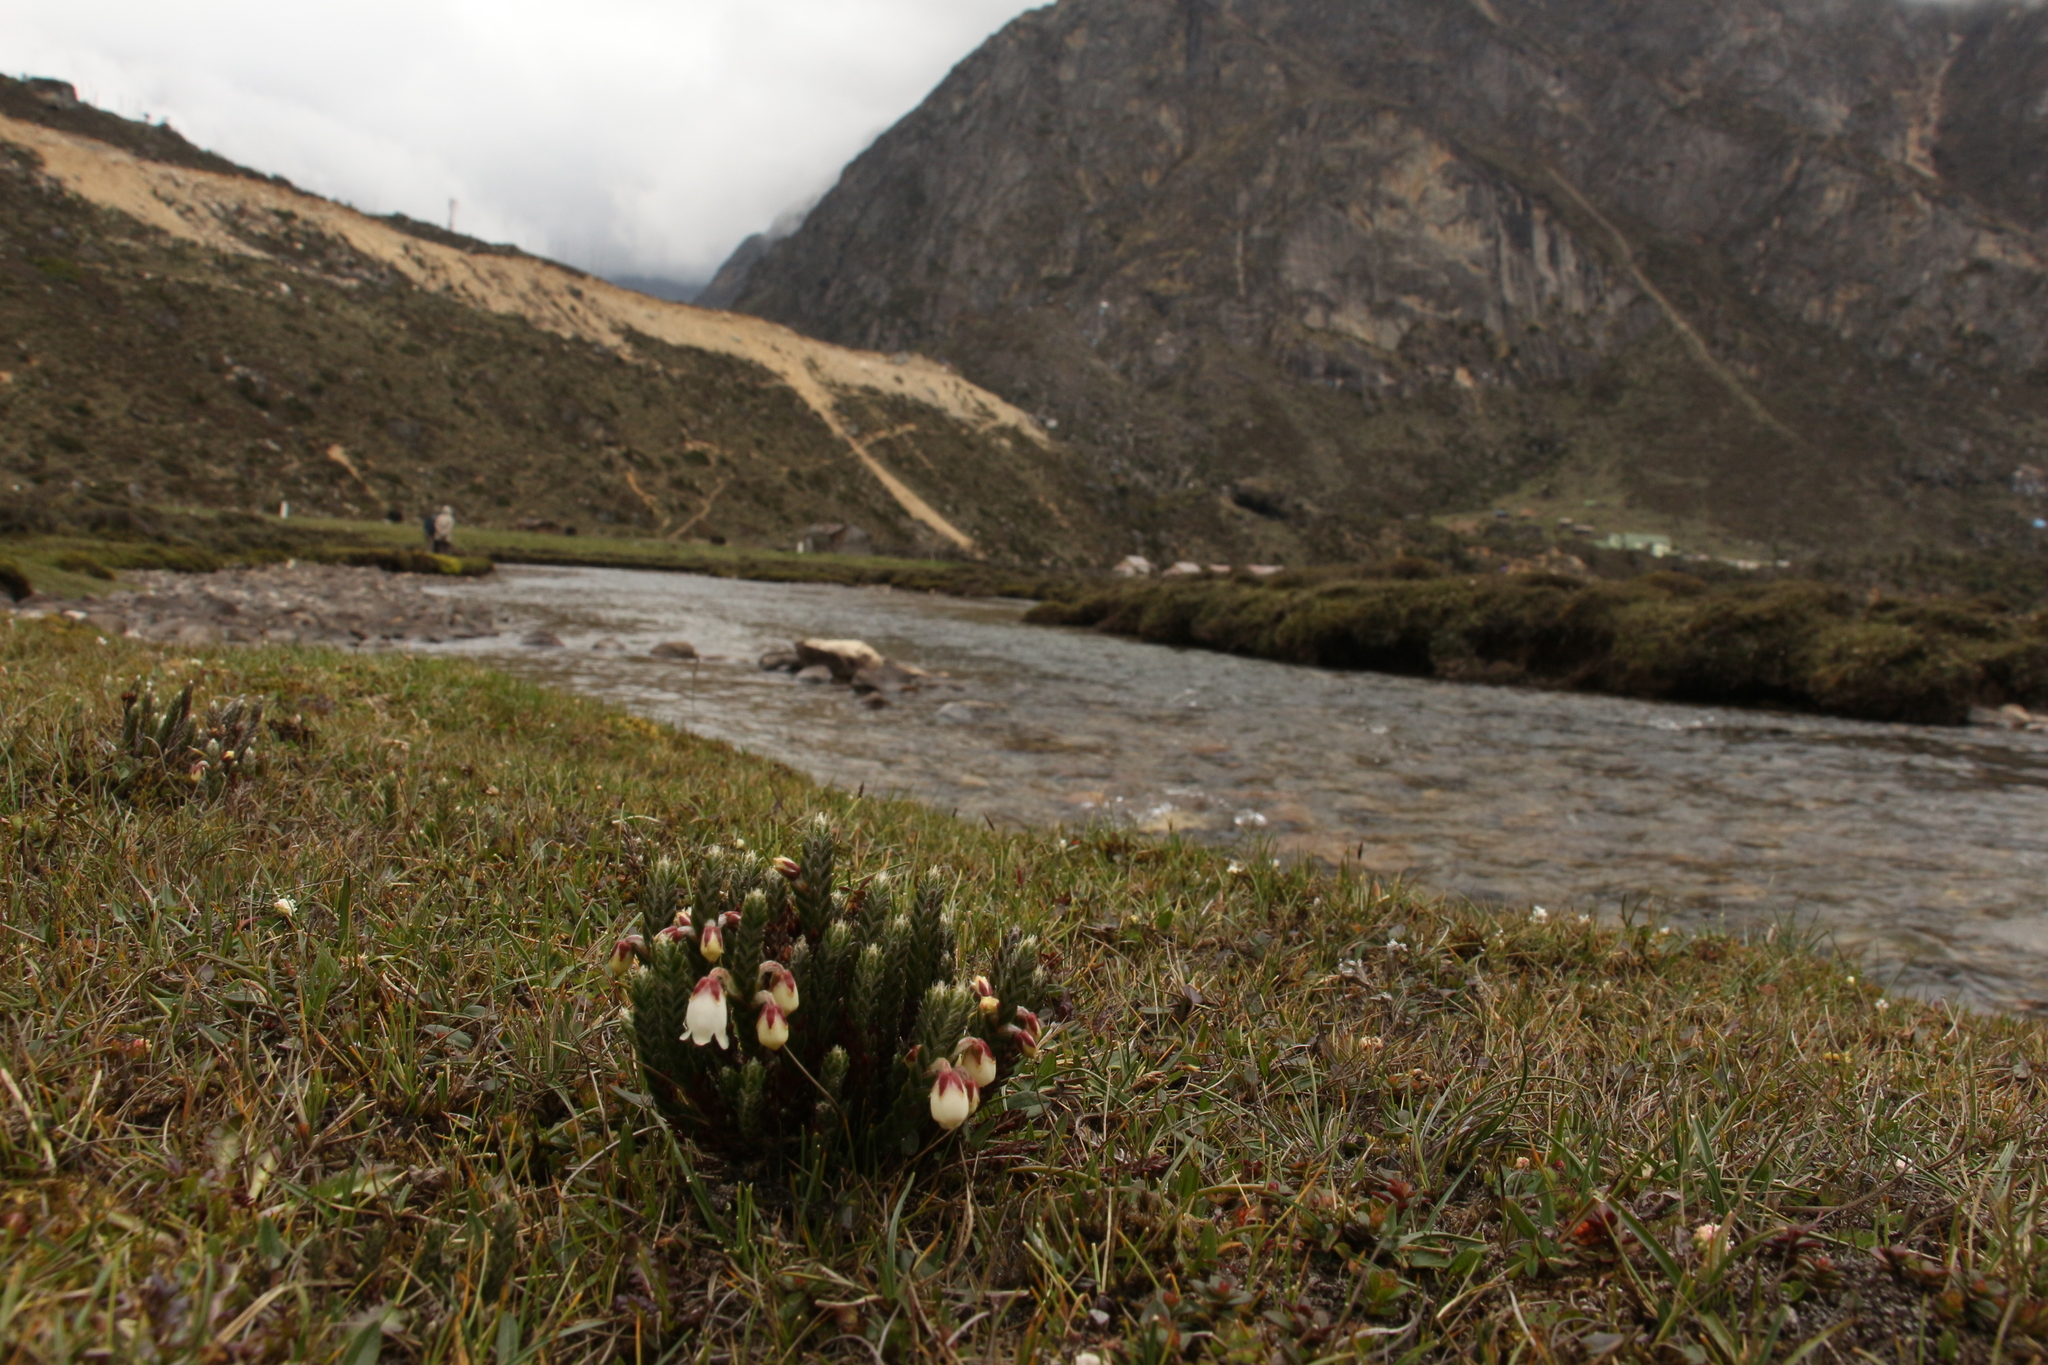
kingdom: Plantae
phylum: Tracheophyta
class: Magnoliopsida
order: Ericales
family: Ericaceae
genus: Cassiope
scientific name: Cassiope fastigiata
